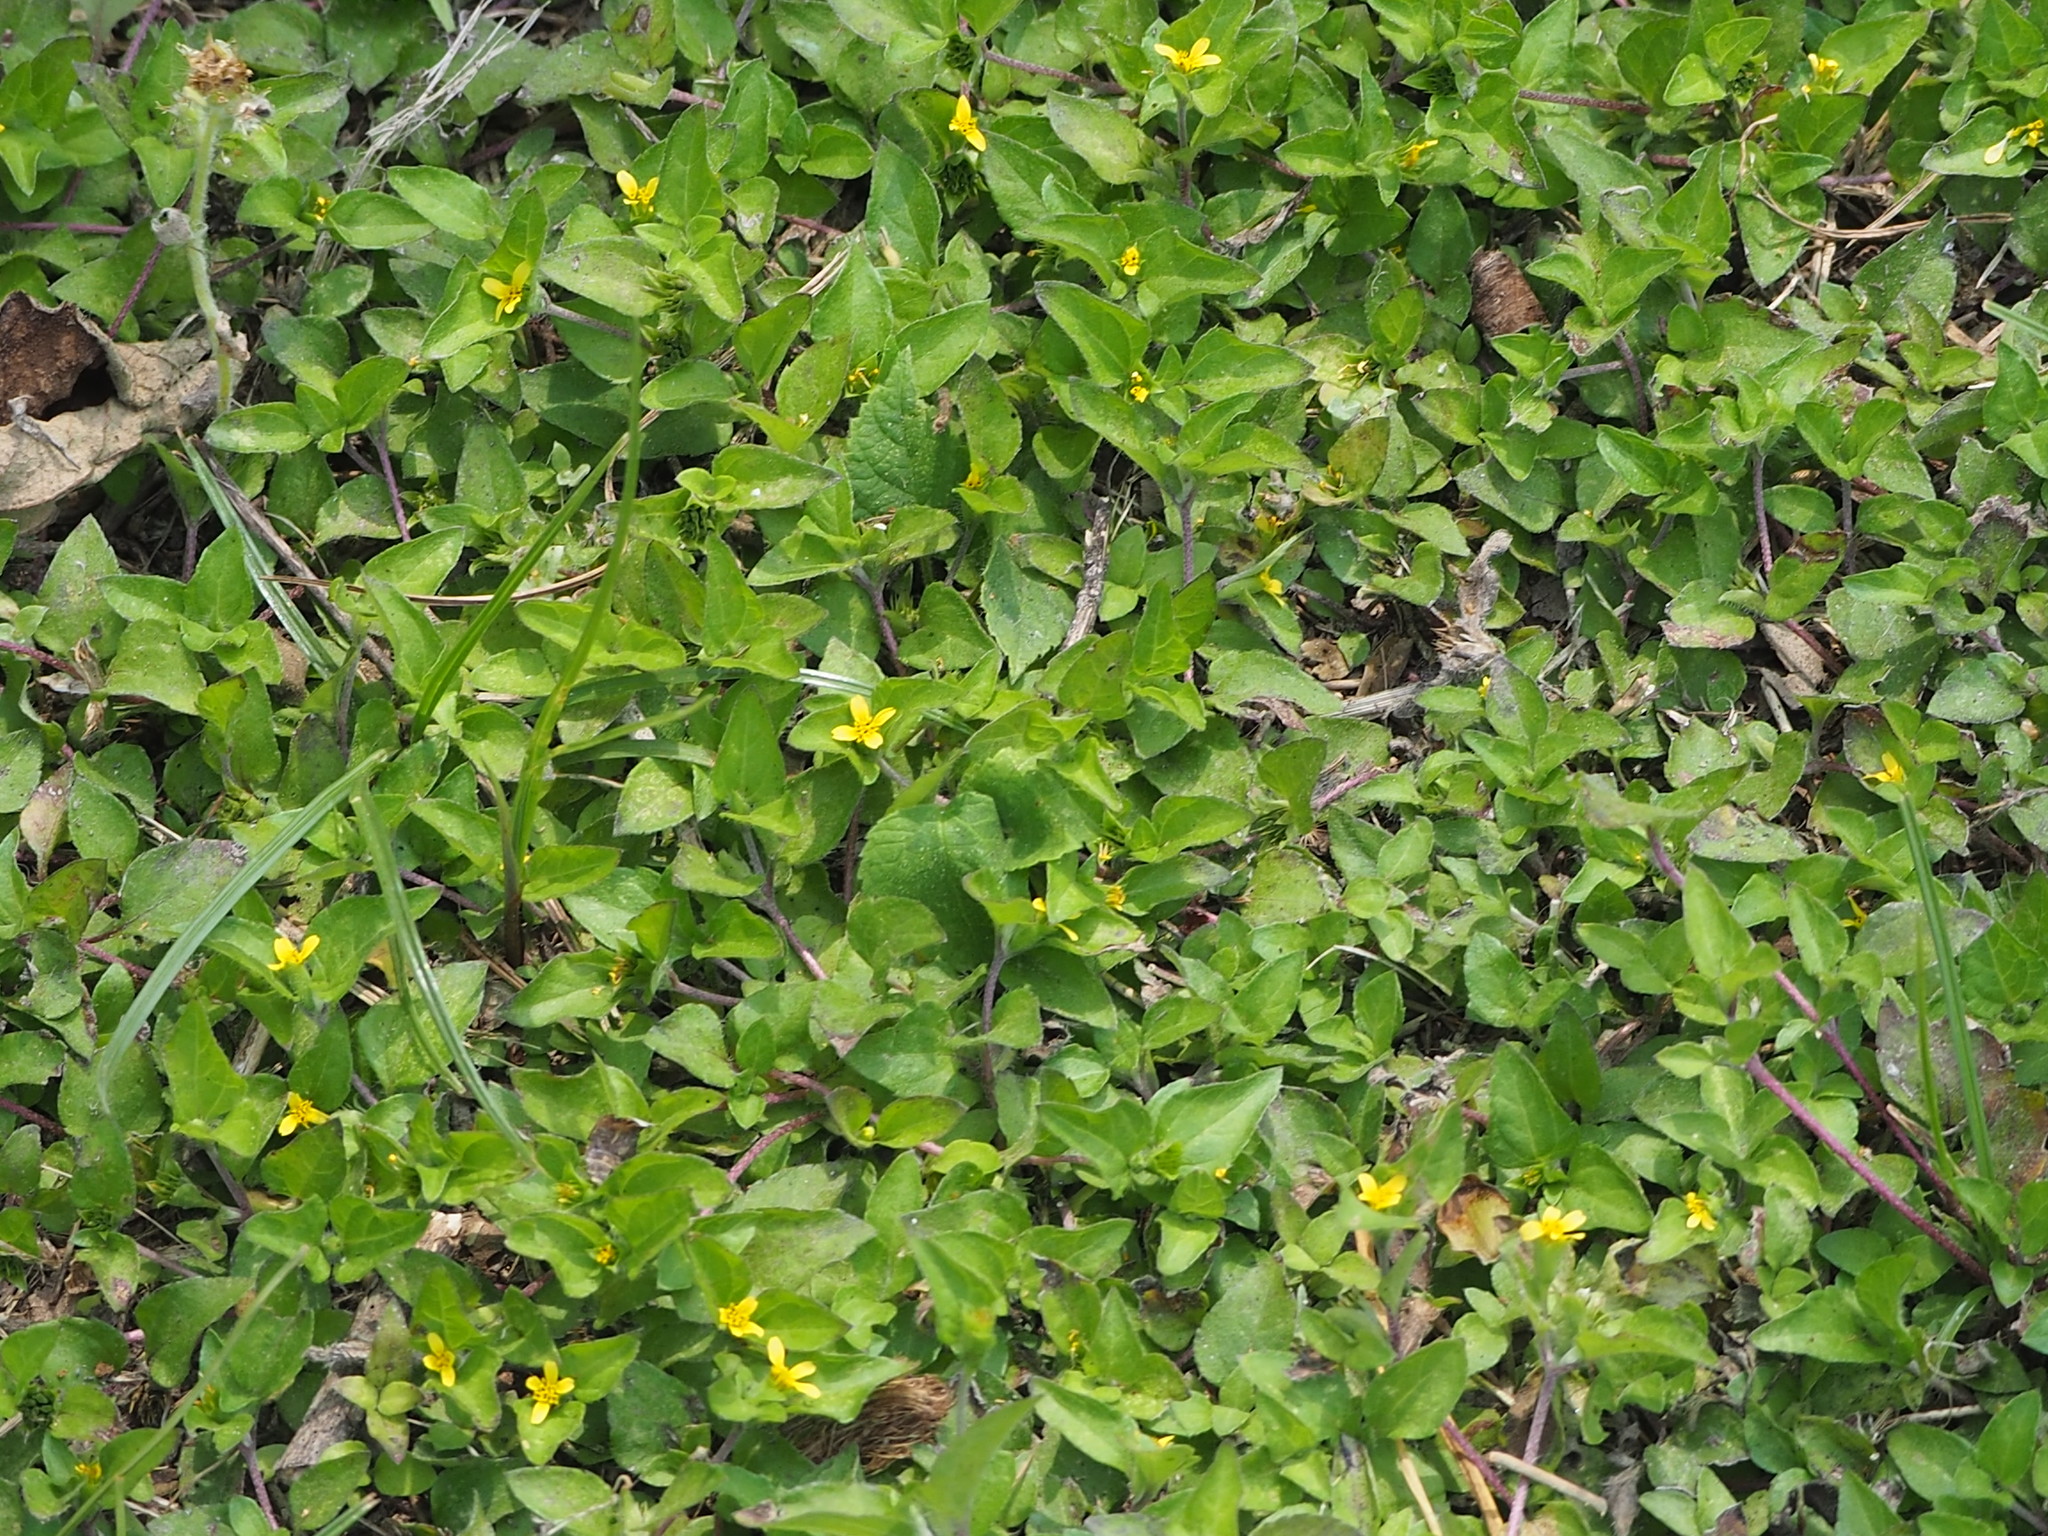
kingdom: Plantae
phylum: Tracheophyta
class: Magnoliopsida
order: Asterales
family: Asteraceae
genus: Calyptocarpus
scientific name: Calyptocarpus vialis
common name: Straggler daisy
